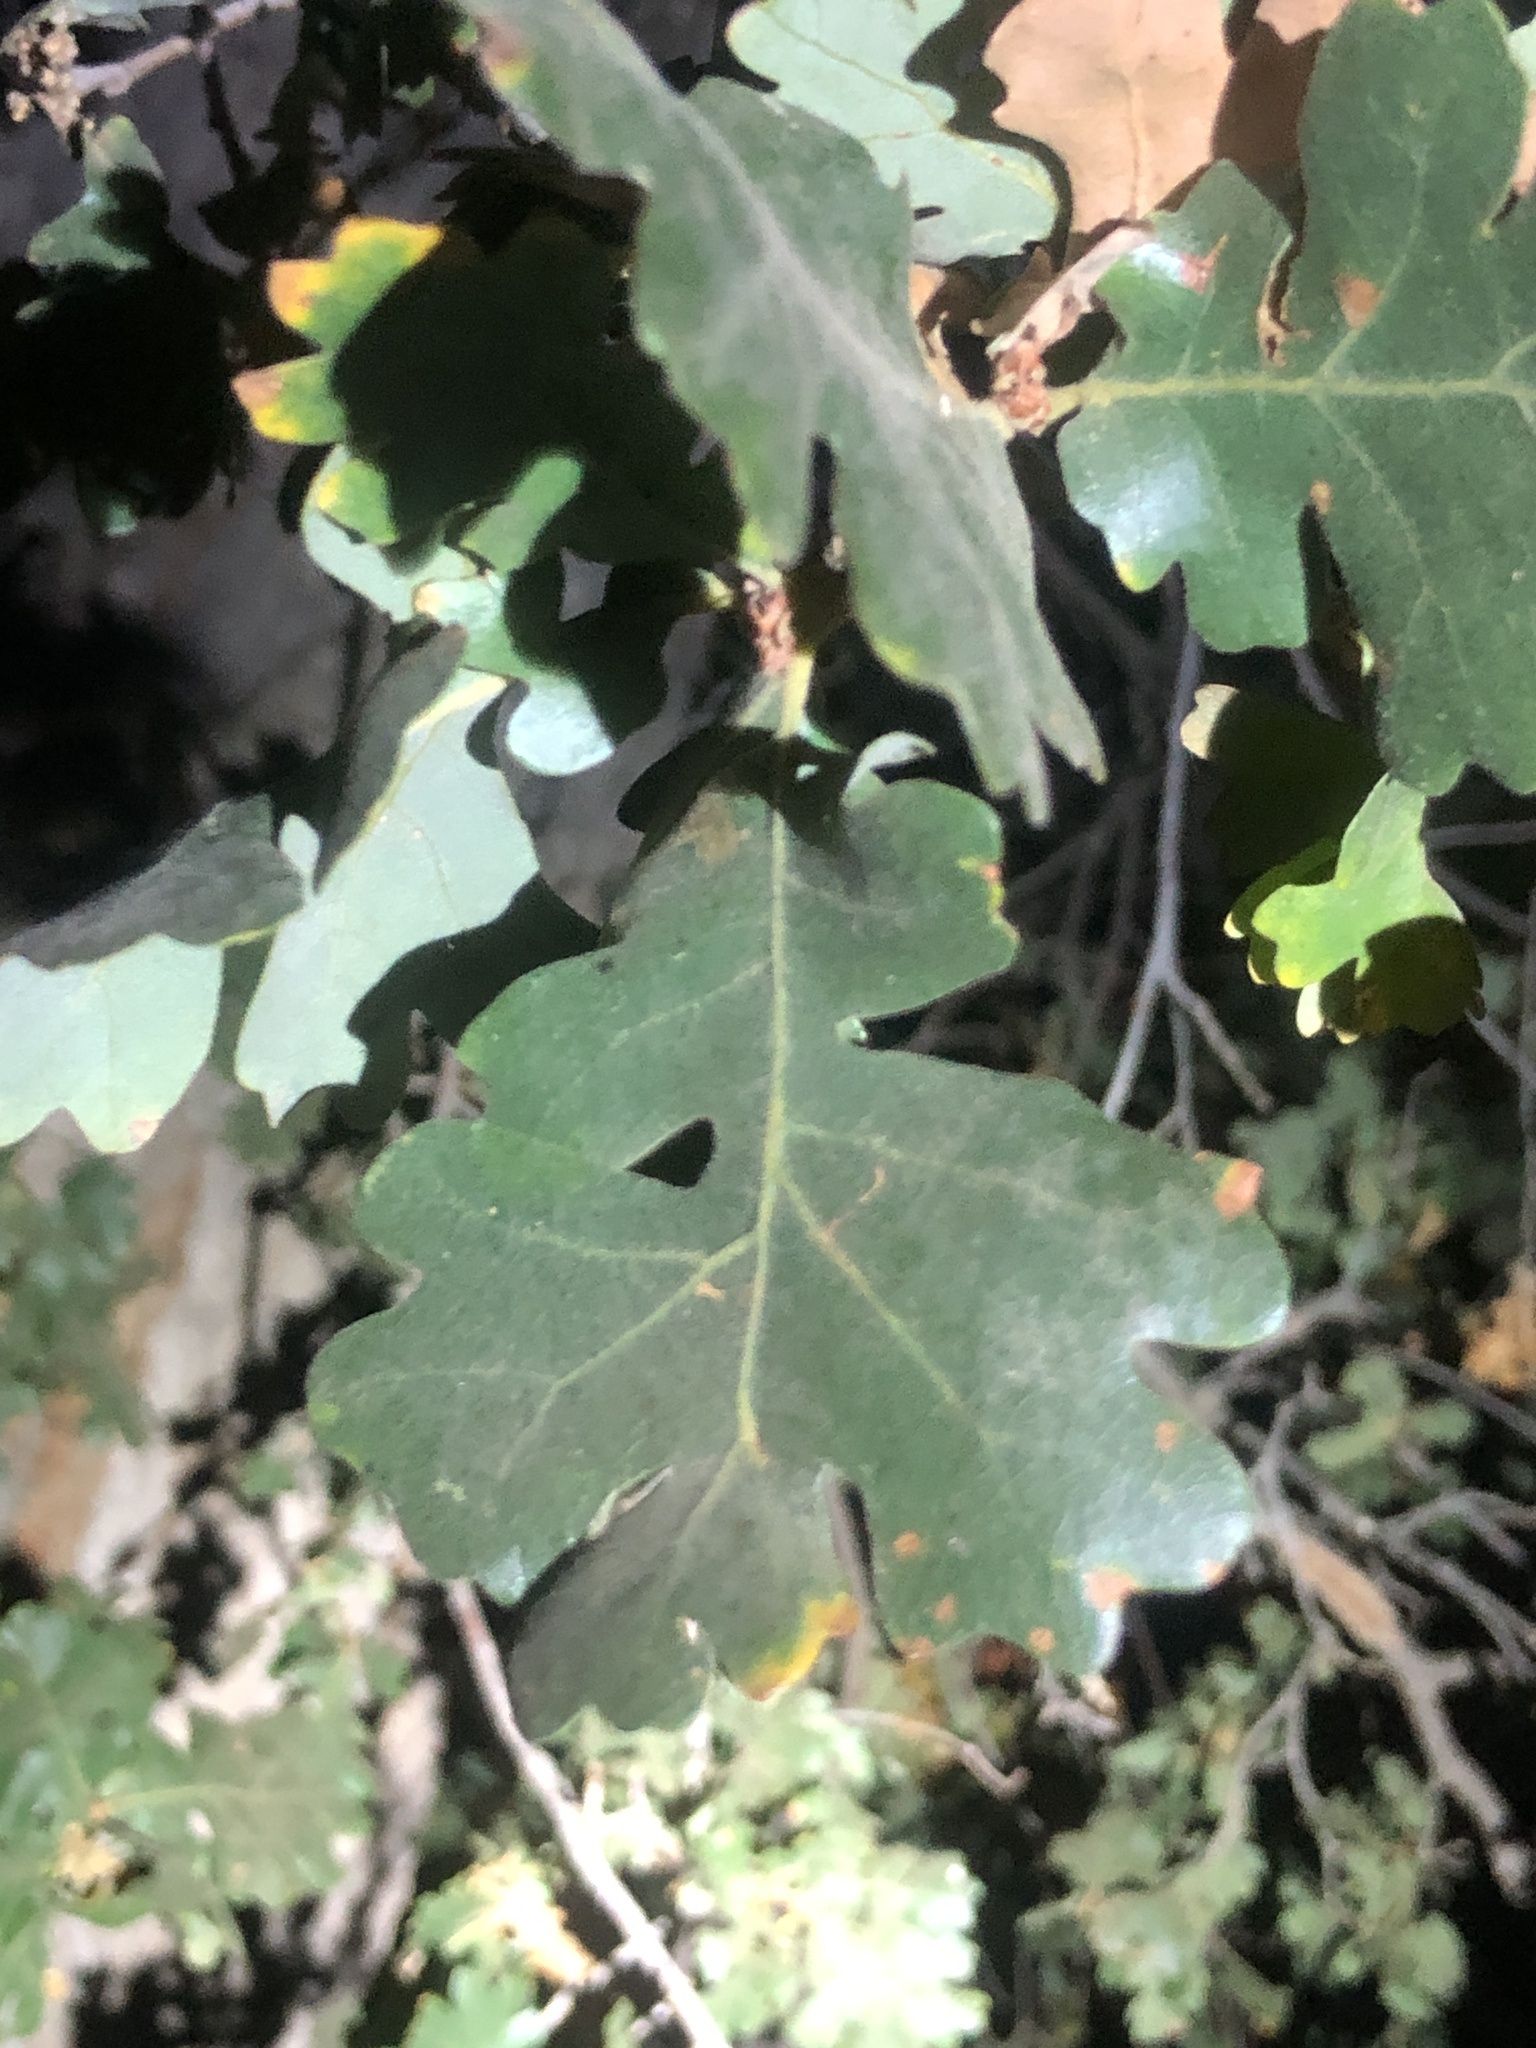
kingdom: Plantae
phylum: Tracheophyta
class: Magnoliopsida
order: Fagales
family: Fagaceae
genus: Quercus
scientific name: Quercus lobata
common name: Valley oak
